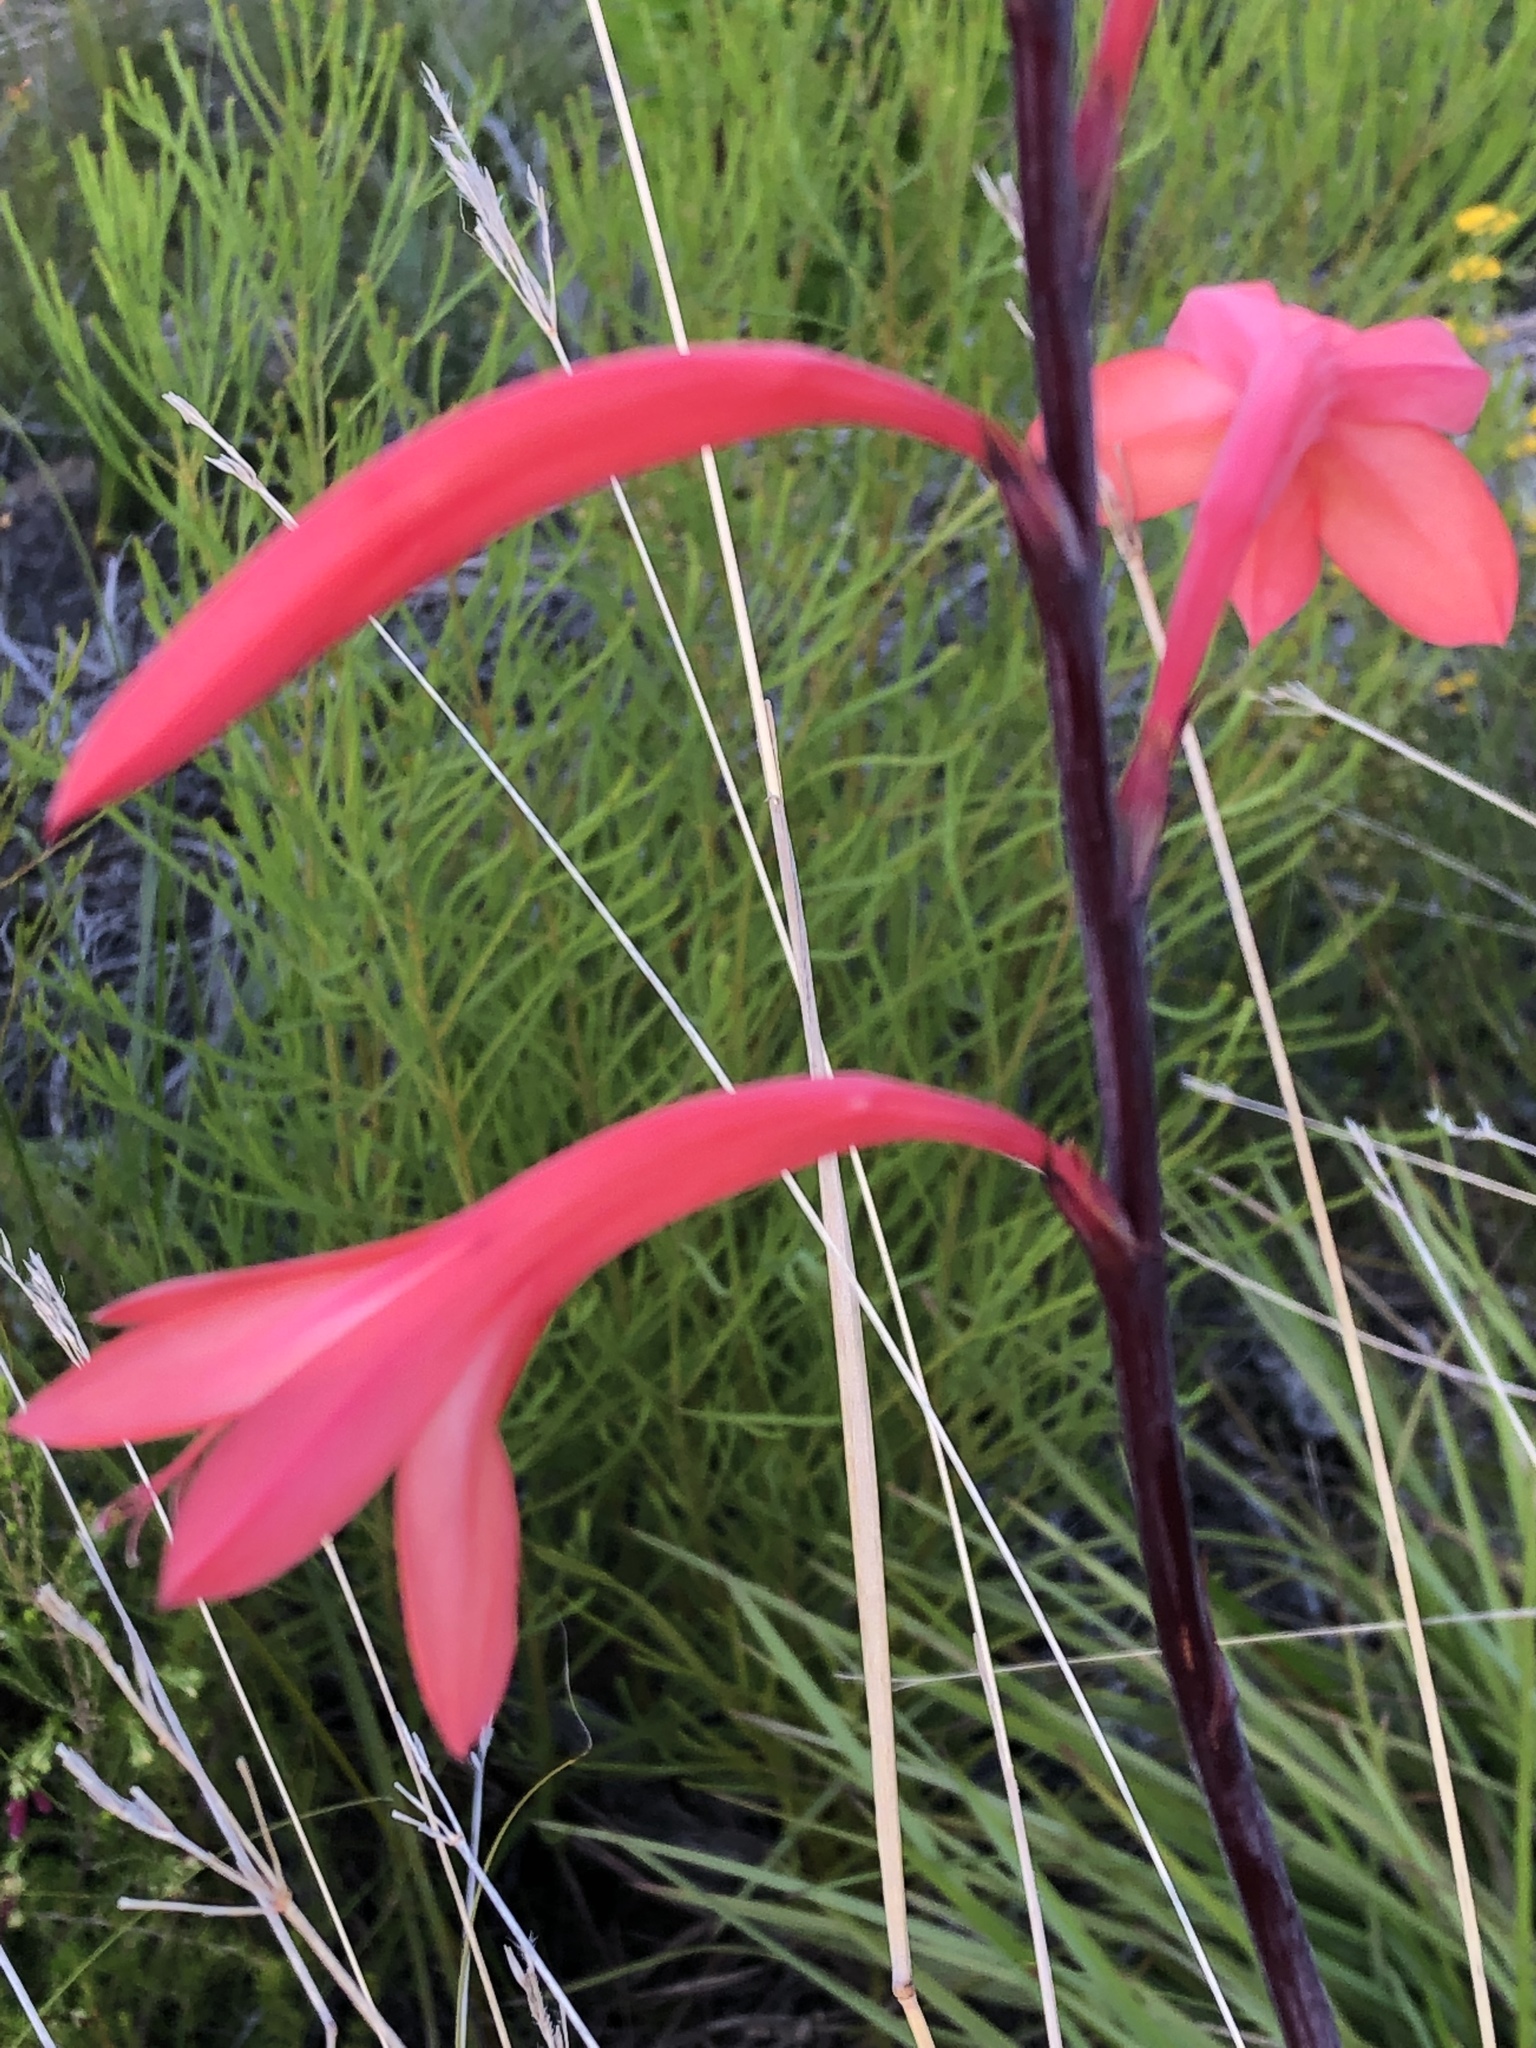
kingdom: Plantae
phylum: Tracheophyta
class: Liliopsida
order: Asparagales
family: Iridaceae
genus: Watsonia
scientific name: Watsonia fourcadei
